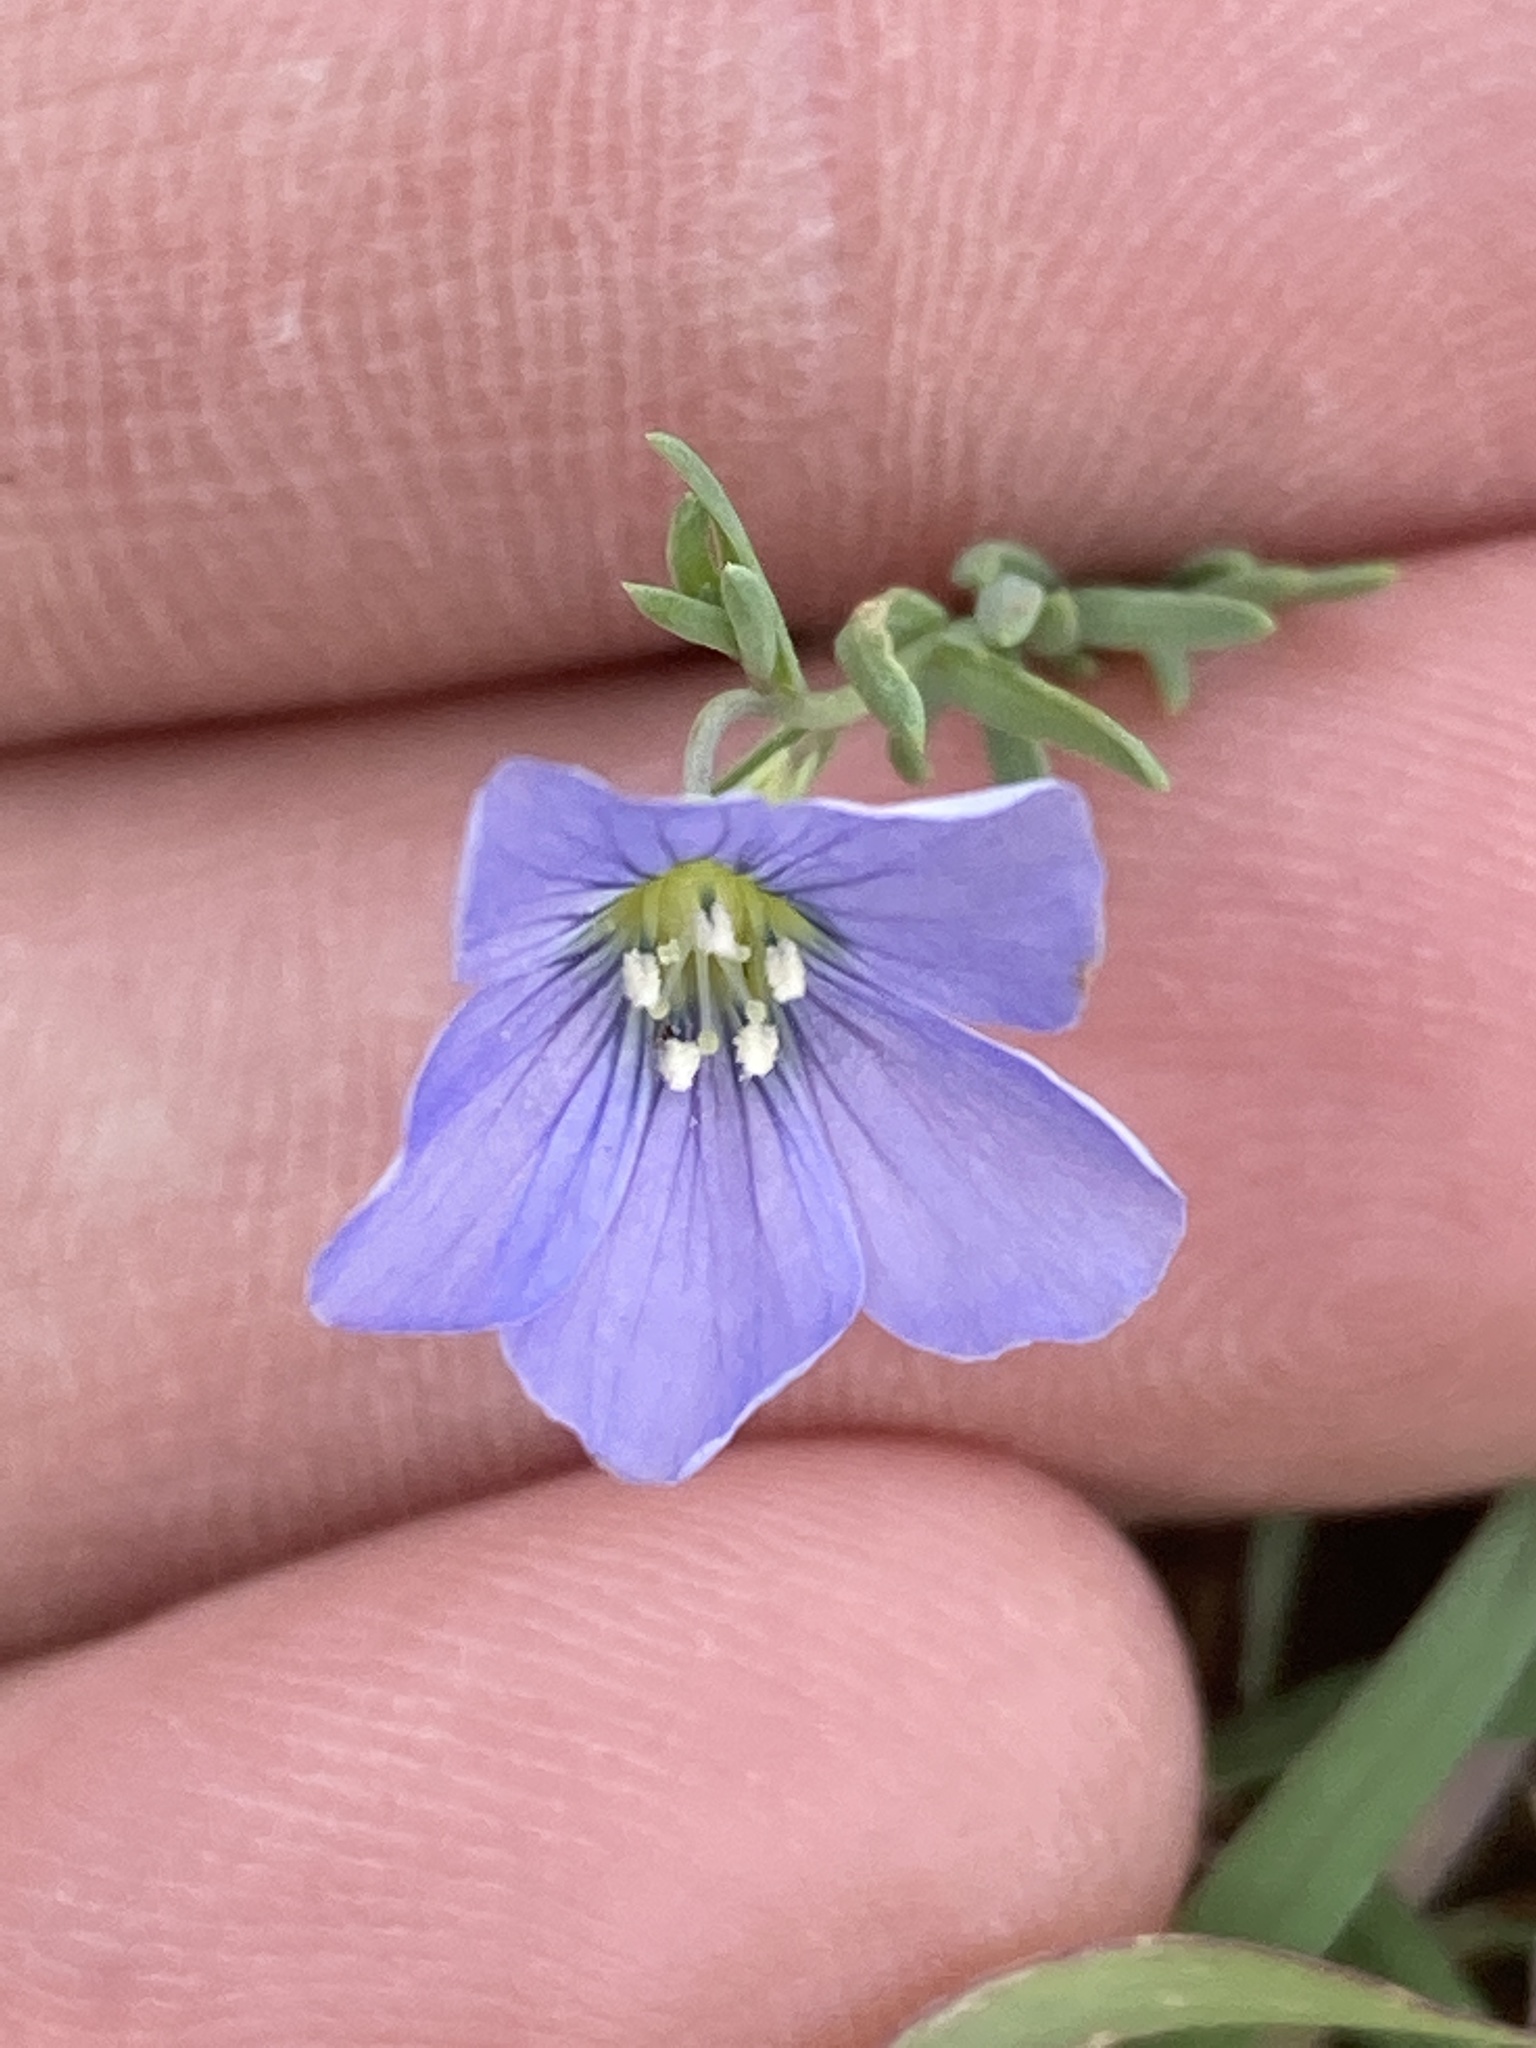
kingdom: Plantae
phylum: Tracheophyta
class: Magnoliopsida
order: Malpighiales
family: Linaceae
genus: Linum
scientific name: Linum pratense
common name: Norton's flax
